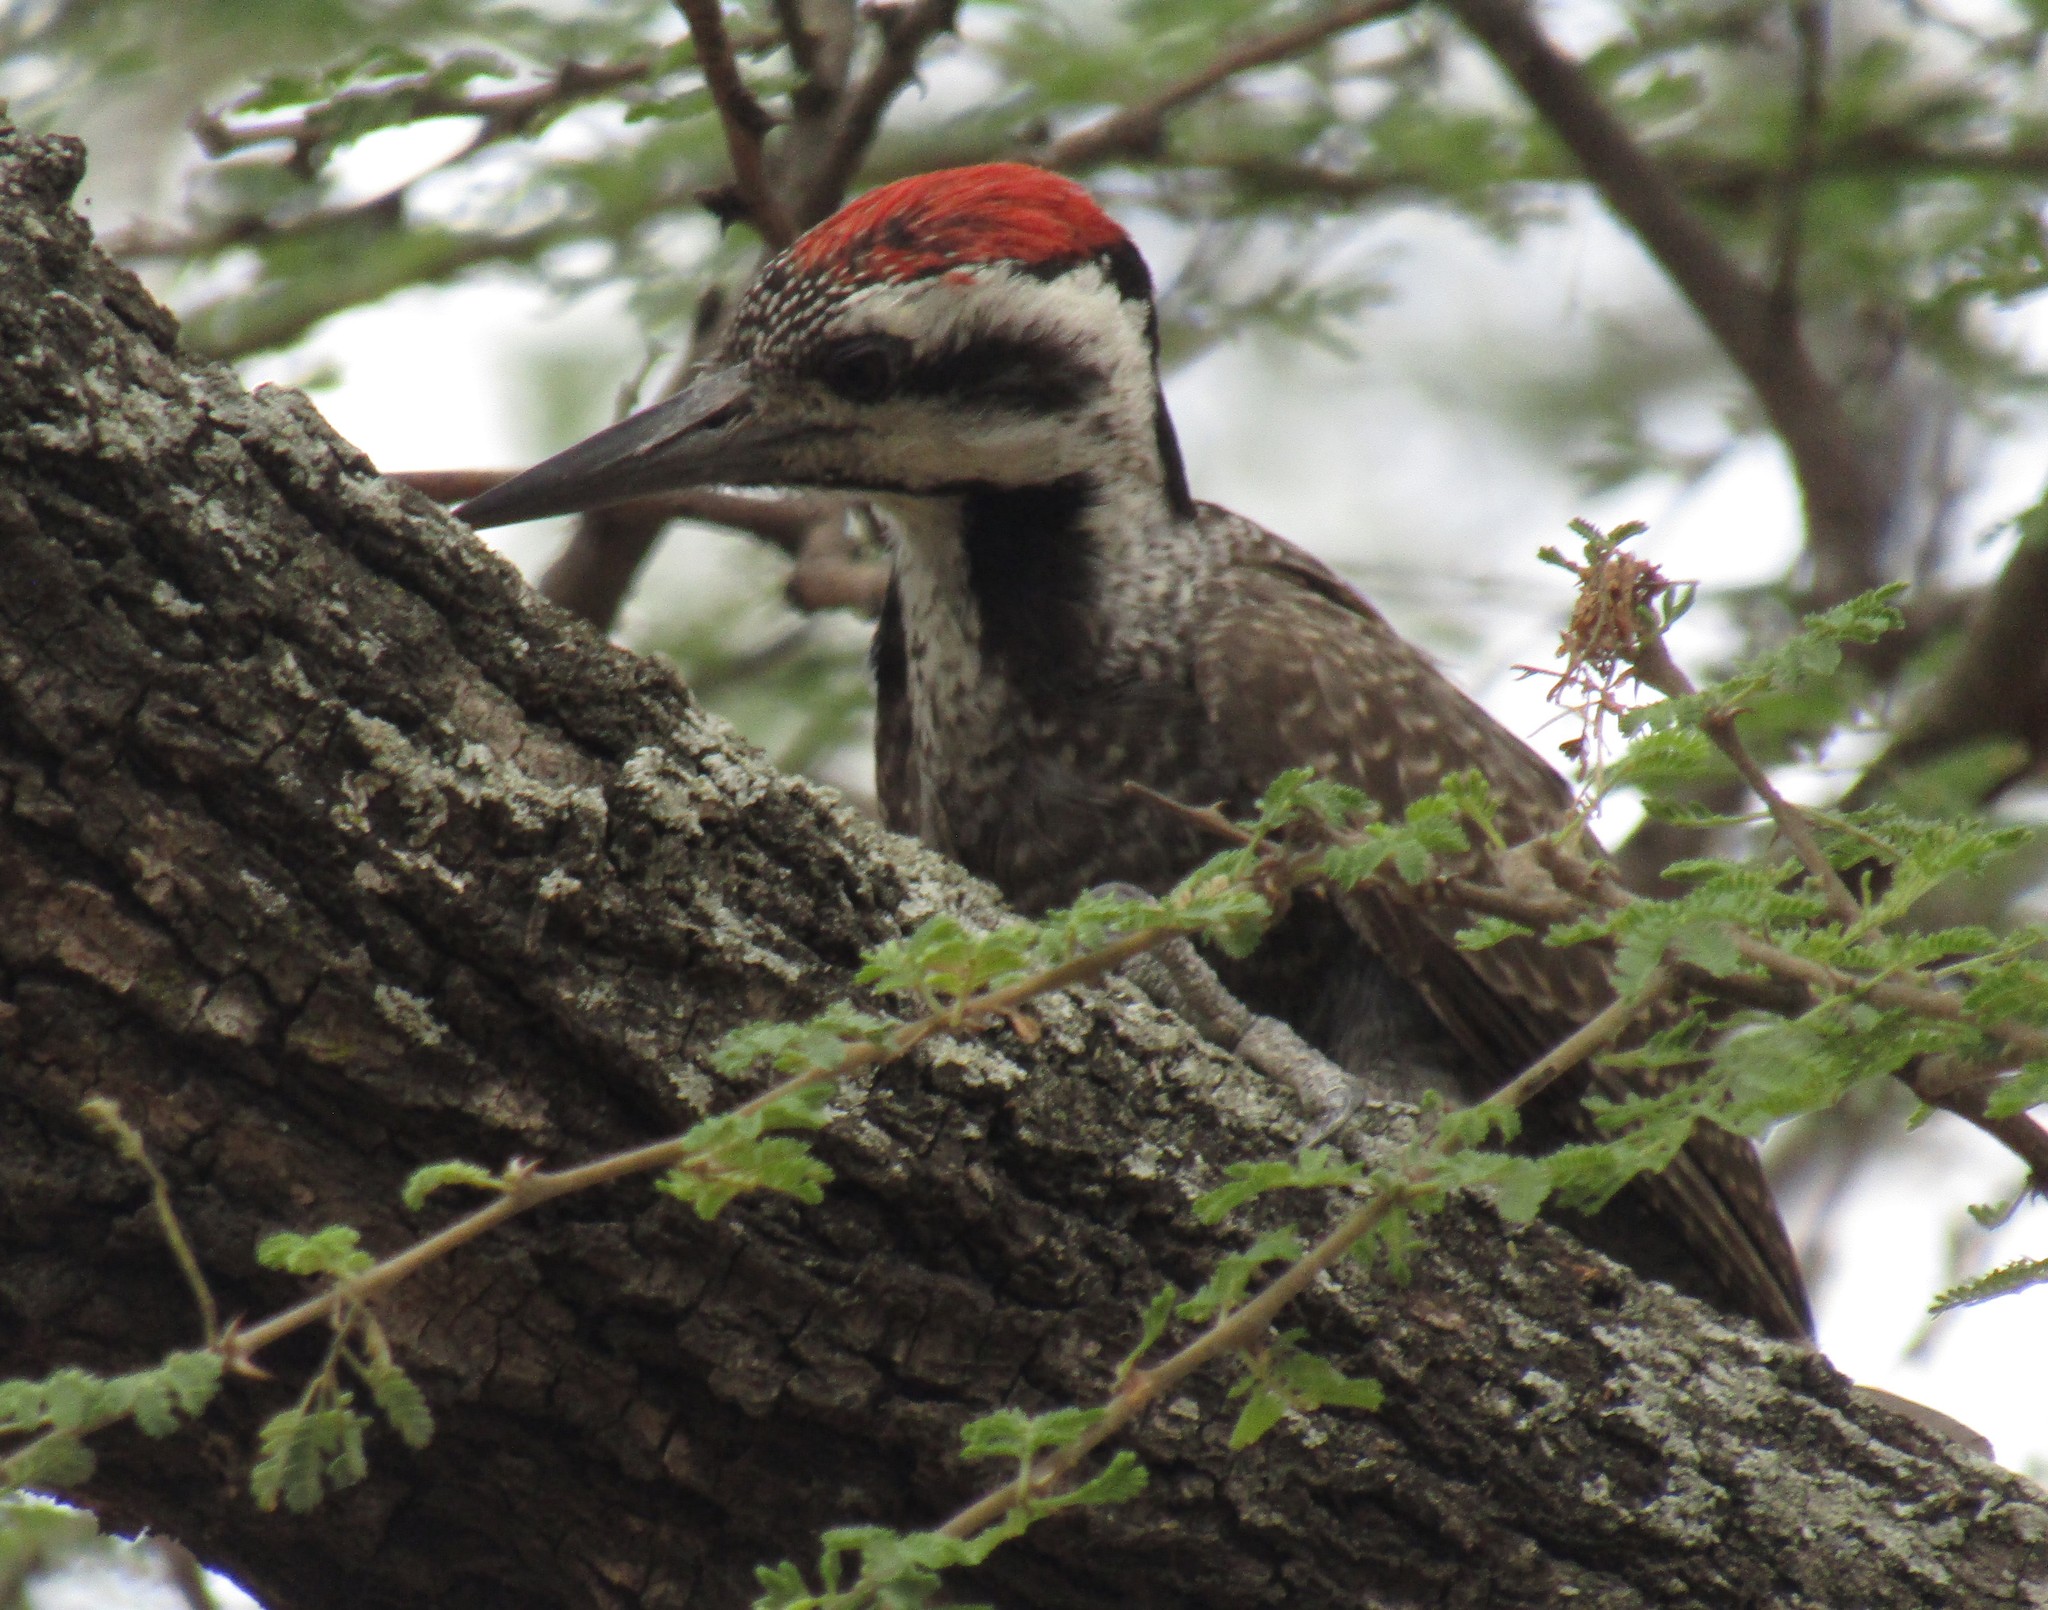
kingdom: Animalia
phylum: Chordata
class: Aves
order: Piciformes
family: Picidae
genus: Chloropicus
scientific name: Chloropicus namaquus
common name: Bearded woodpecker
